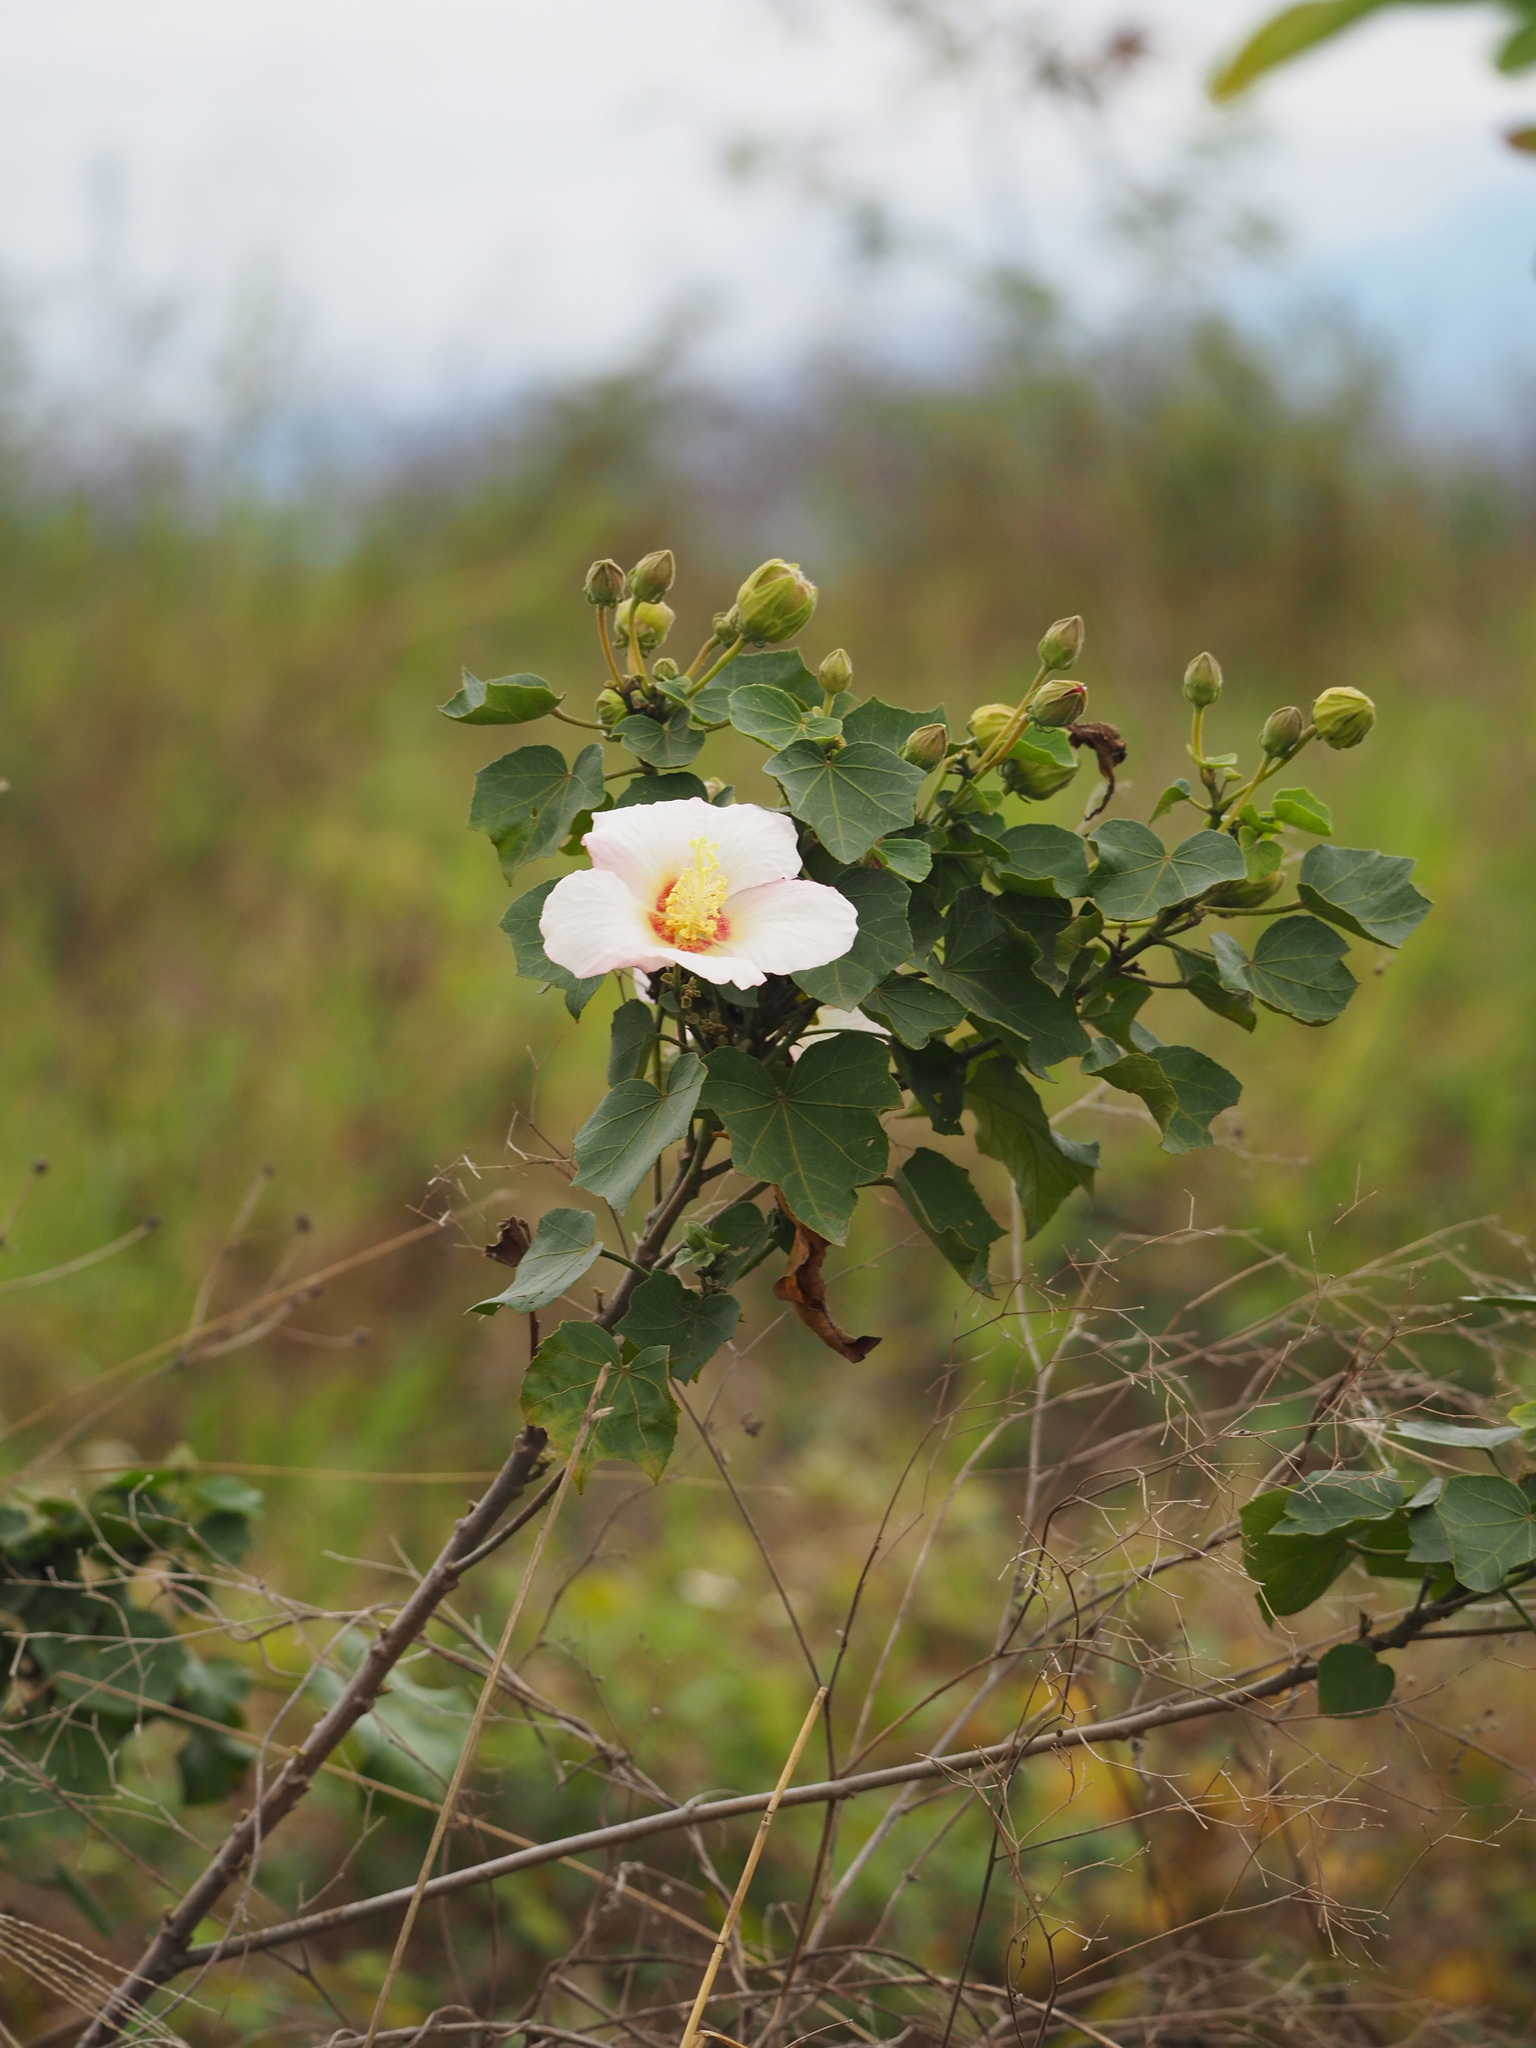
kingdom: Plantae
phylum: Tracheophyta
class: Magnoliopsida
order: Malvales
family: Malvaceae
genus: Hibiscus
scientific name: Hibiscus taiwanensis
